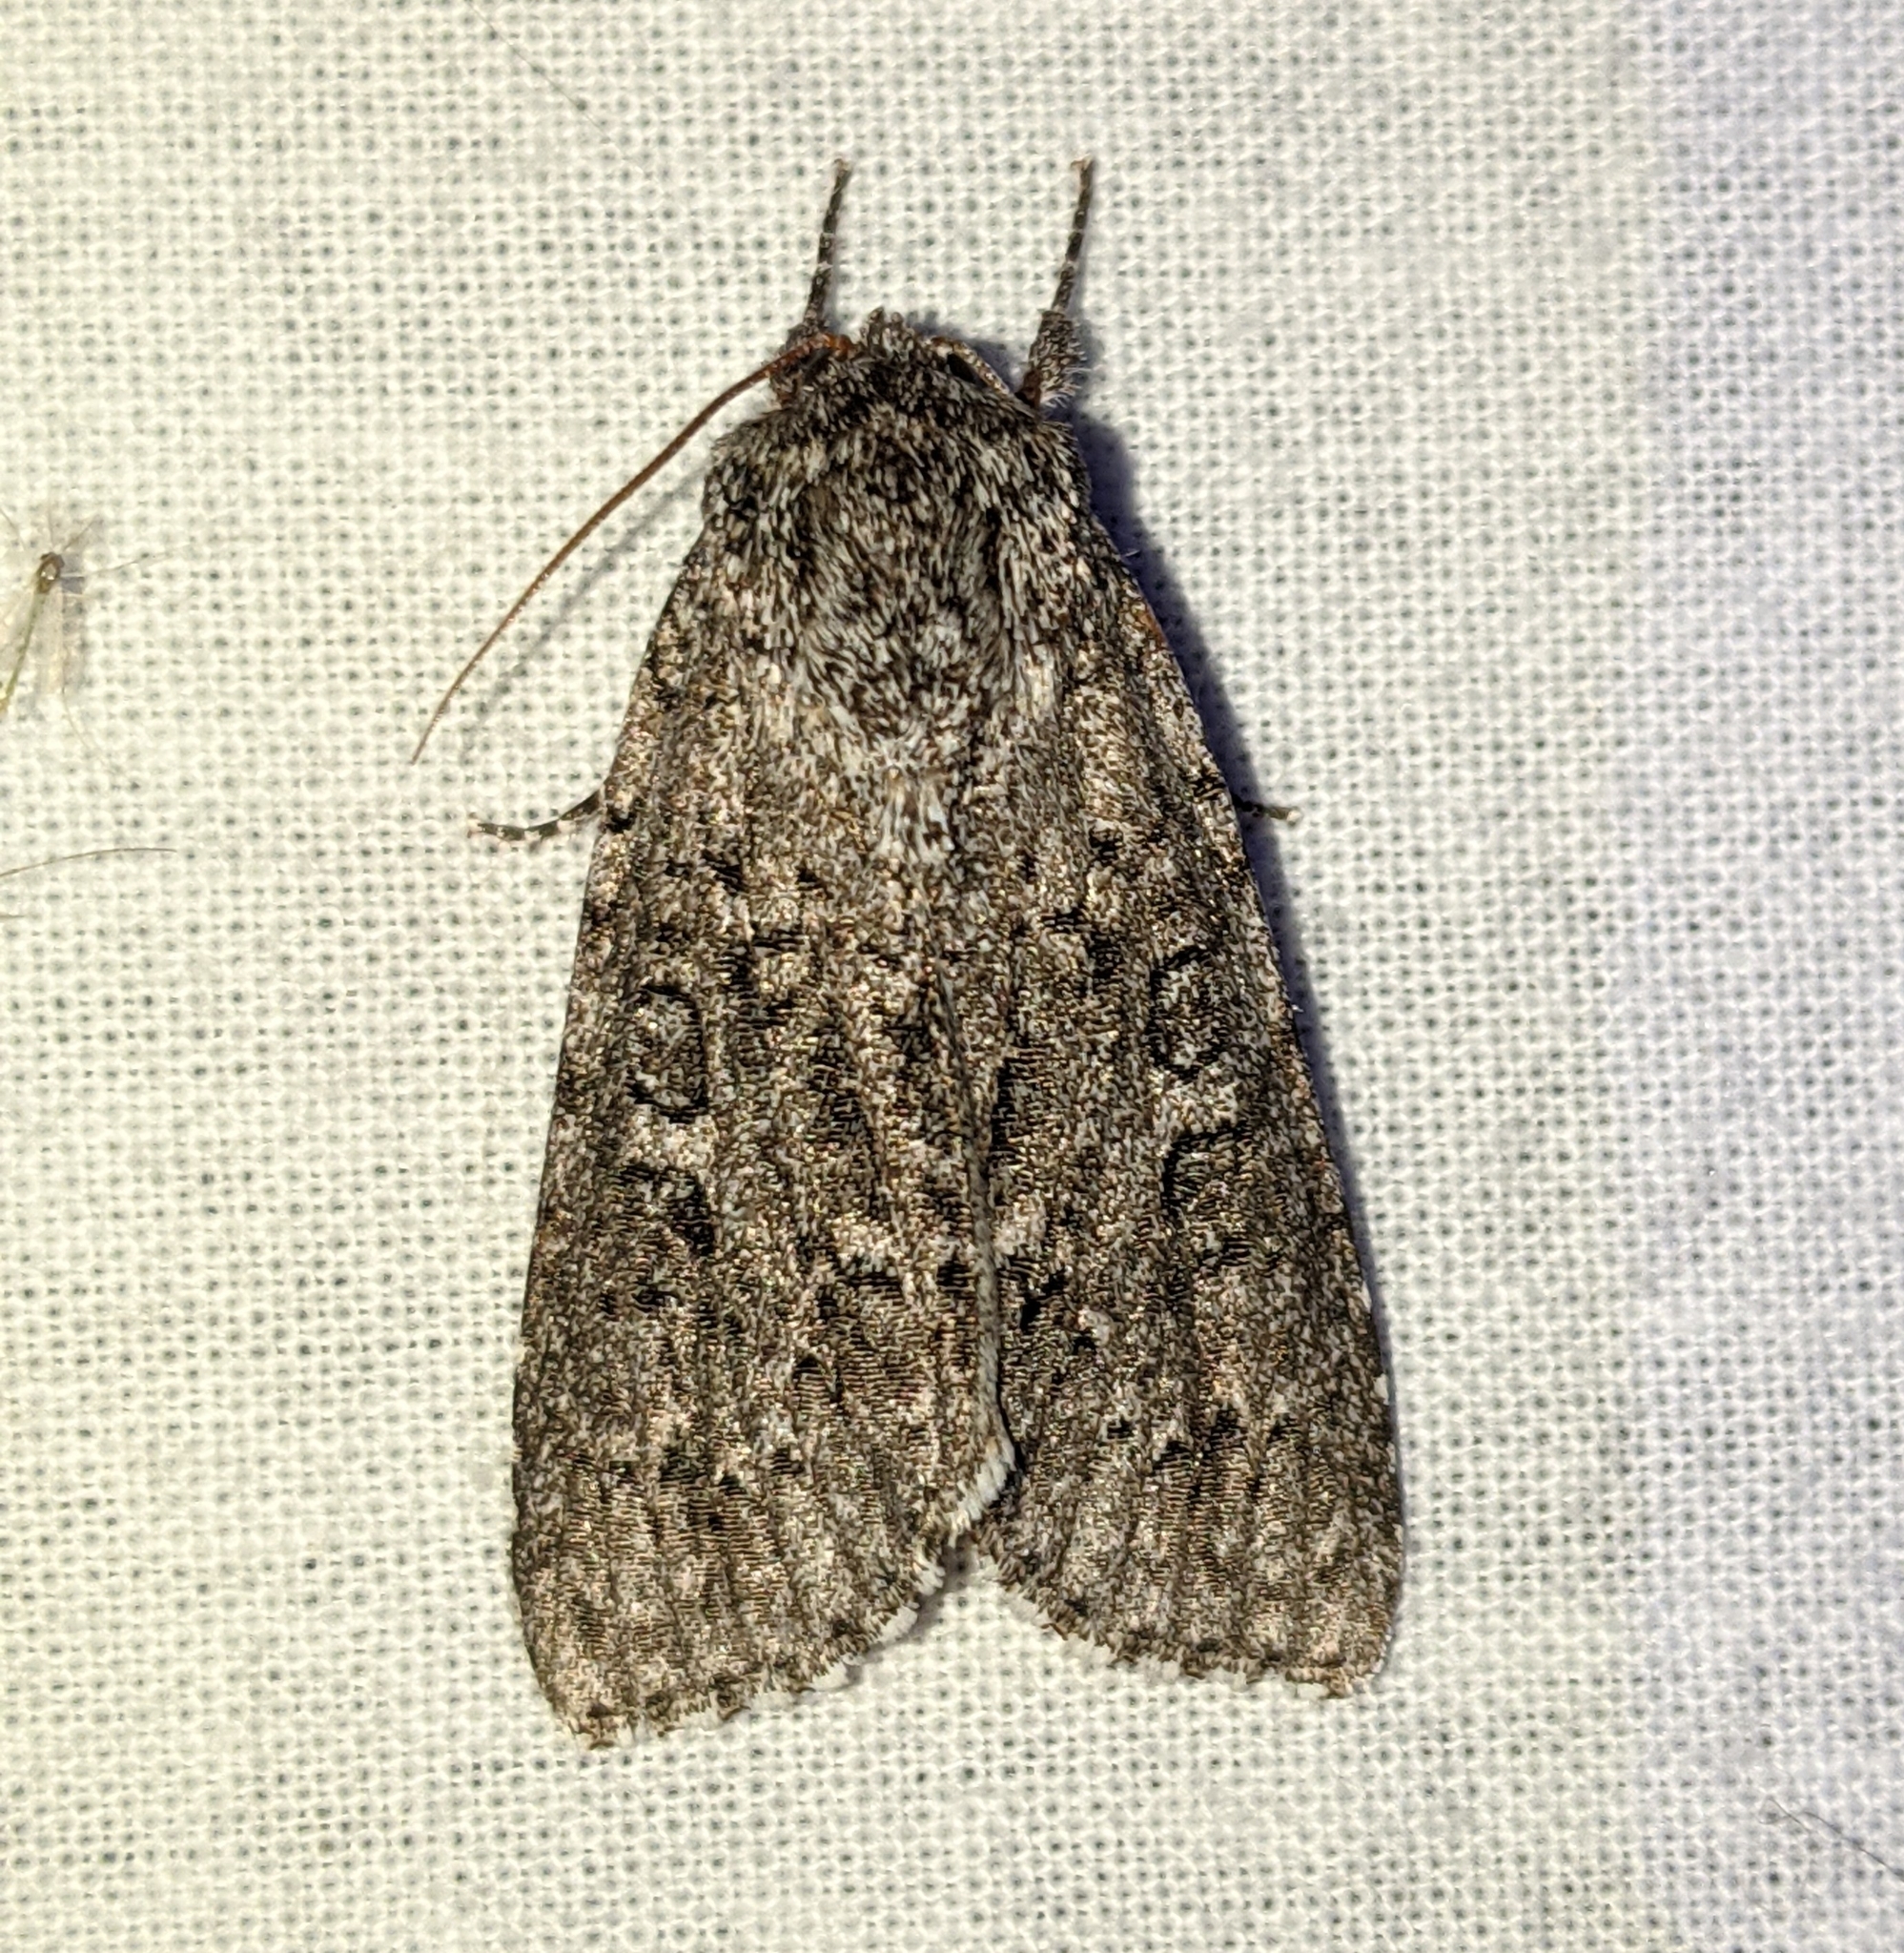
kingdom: Animalia
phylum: Arthropoda
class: Insecta
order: Lepidoptera
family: Noctuidae
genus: Acronicta
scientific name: Acronicta impleta
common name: Powdered dagger
